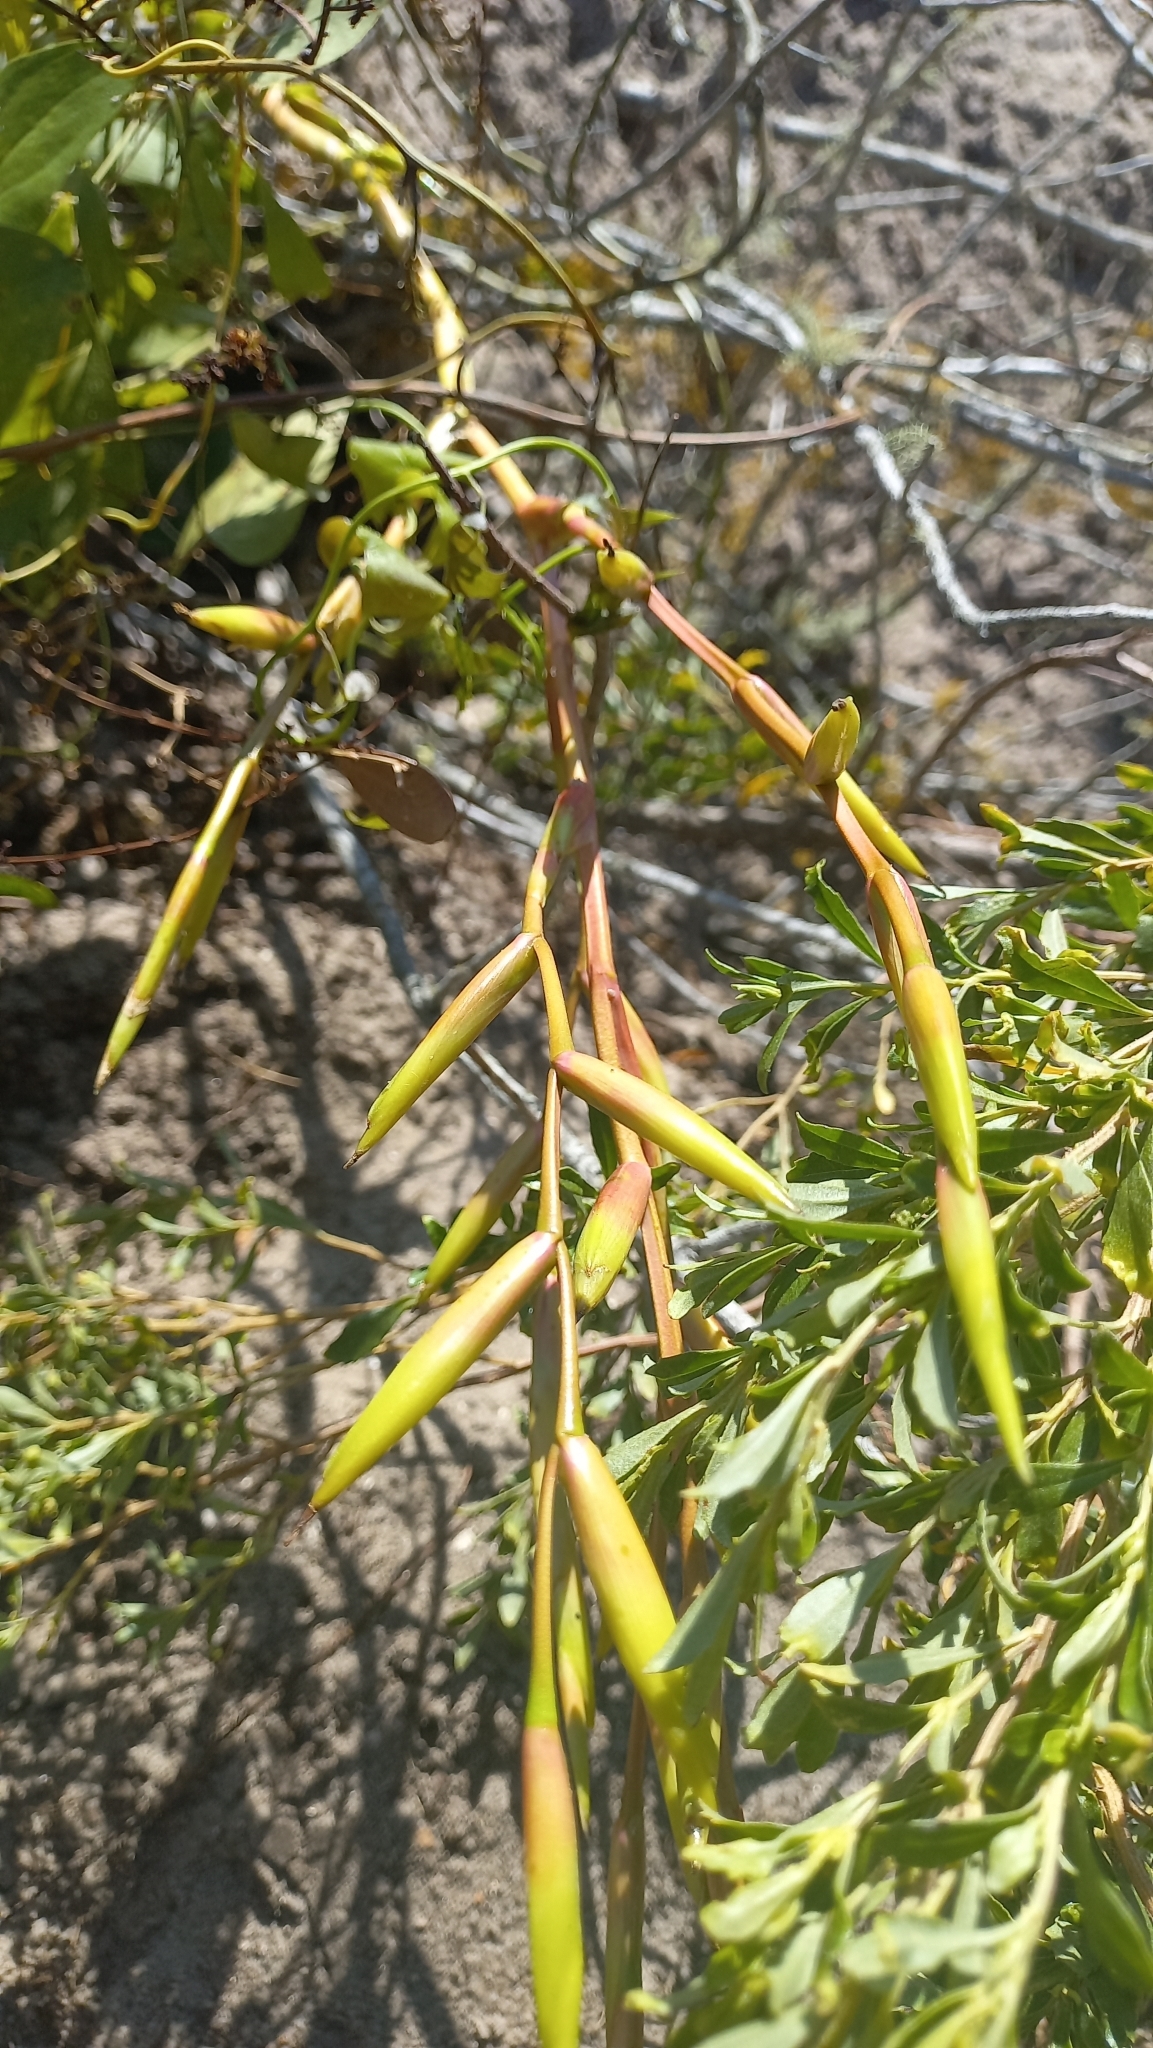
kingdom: Plantae
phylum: Tracheophyta
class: Liliopsida
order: Poales
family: Bromeliaceae
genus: Vriesea
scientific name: Vriesea rubroviridis
